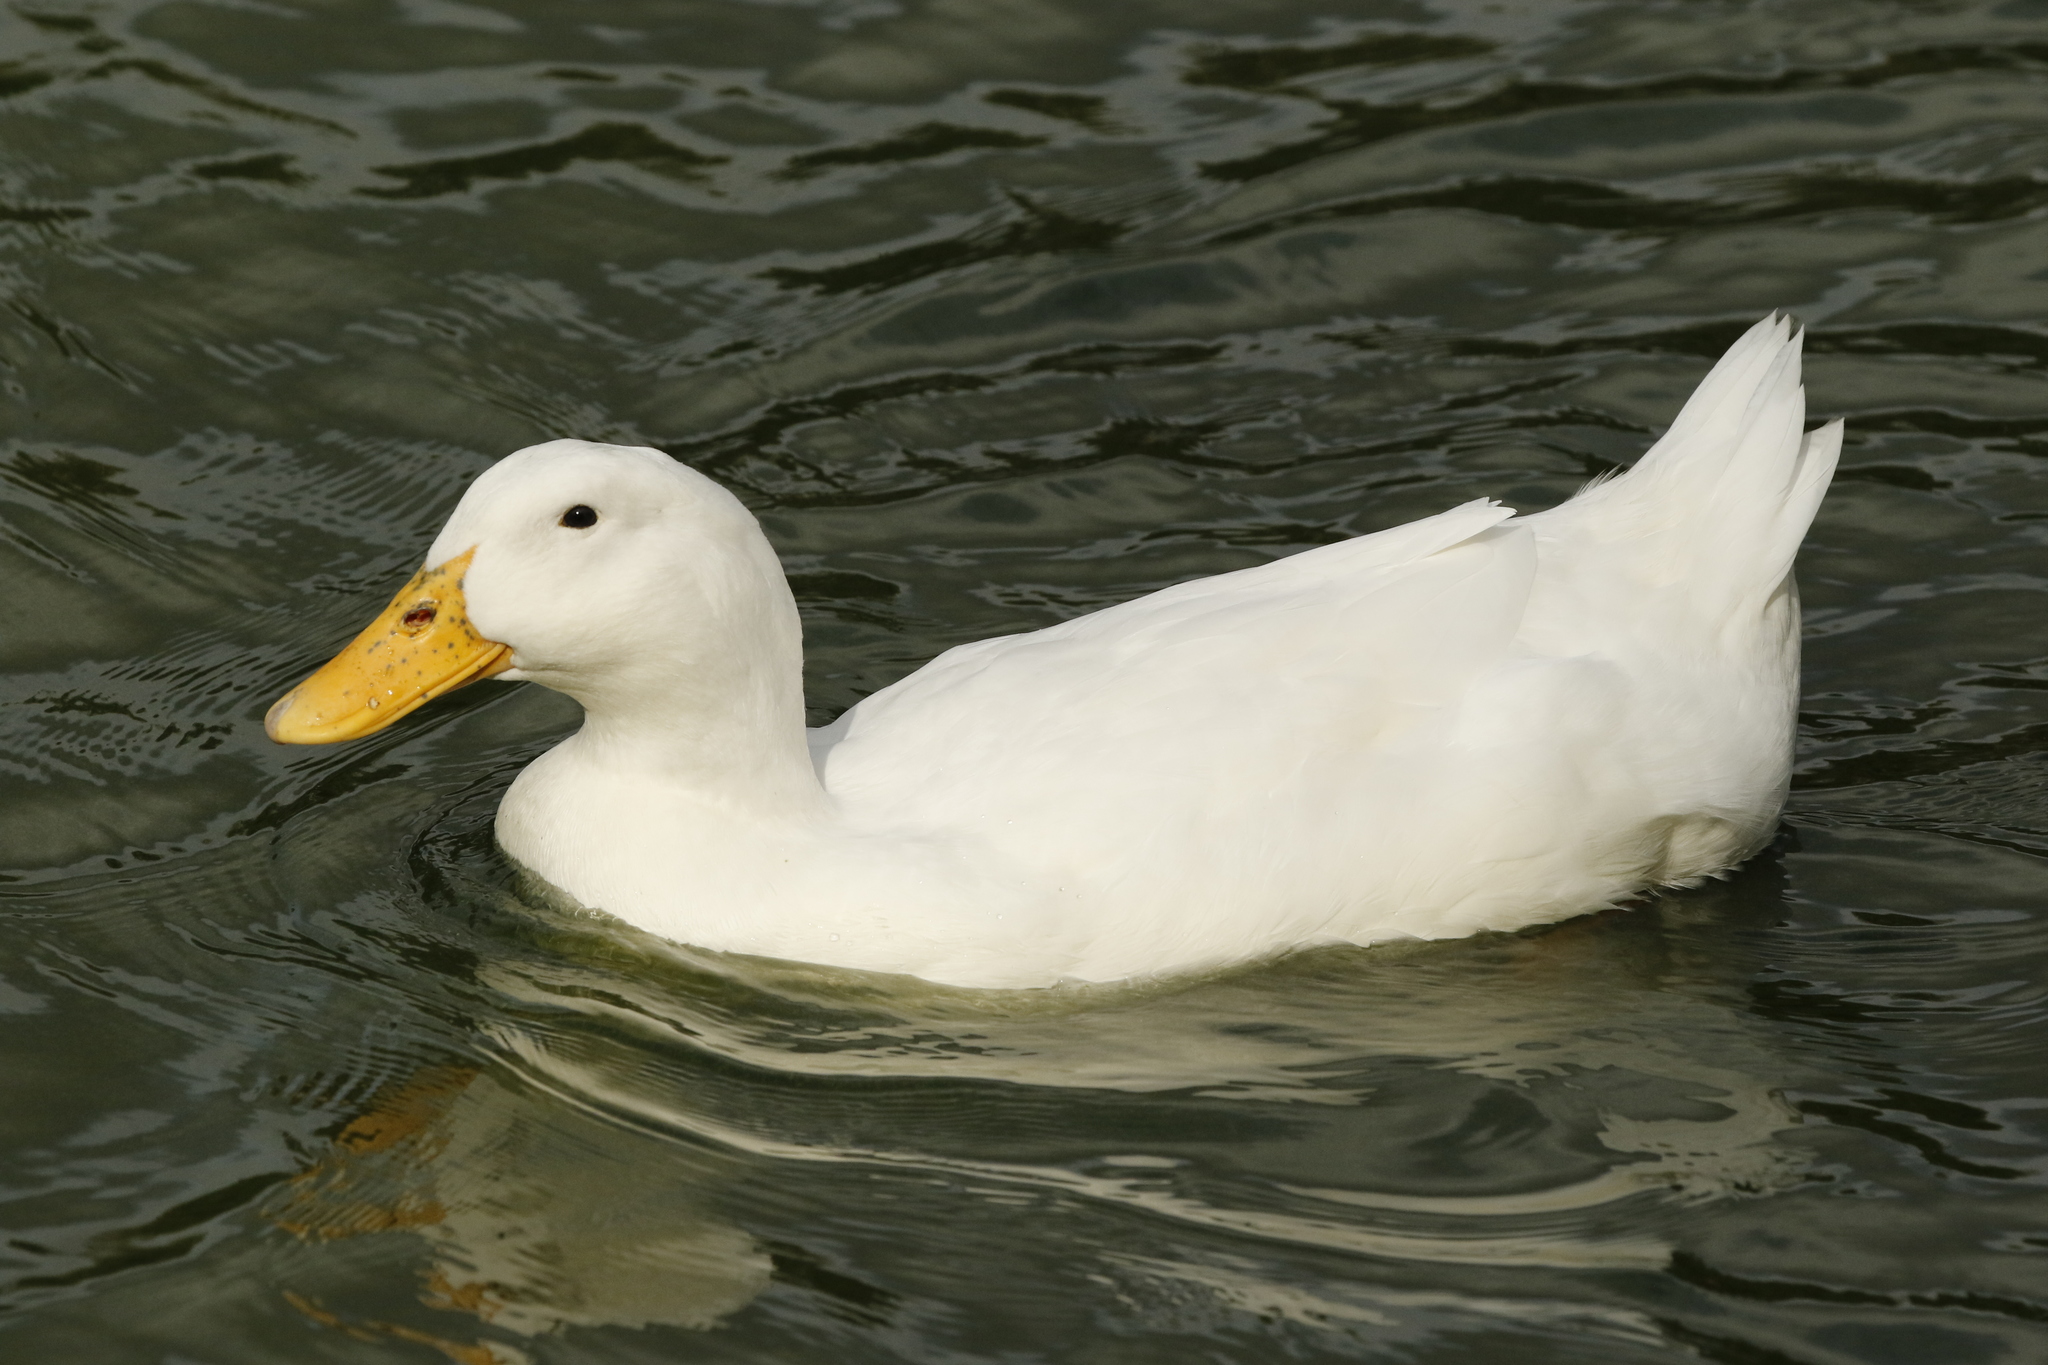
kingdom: Animalia
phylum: Chordata
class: Aves
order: Anseriformes
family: Anatidae
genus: Anas
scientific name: Anas platyrhynchos
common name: Mallard
